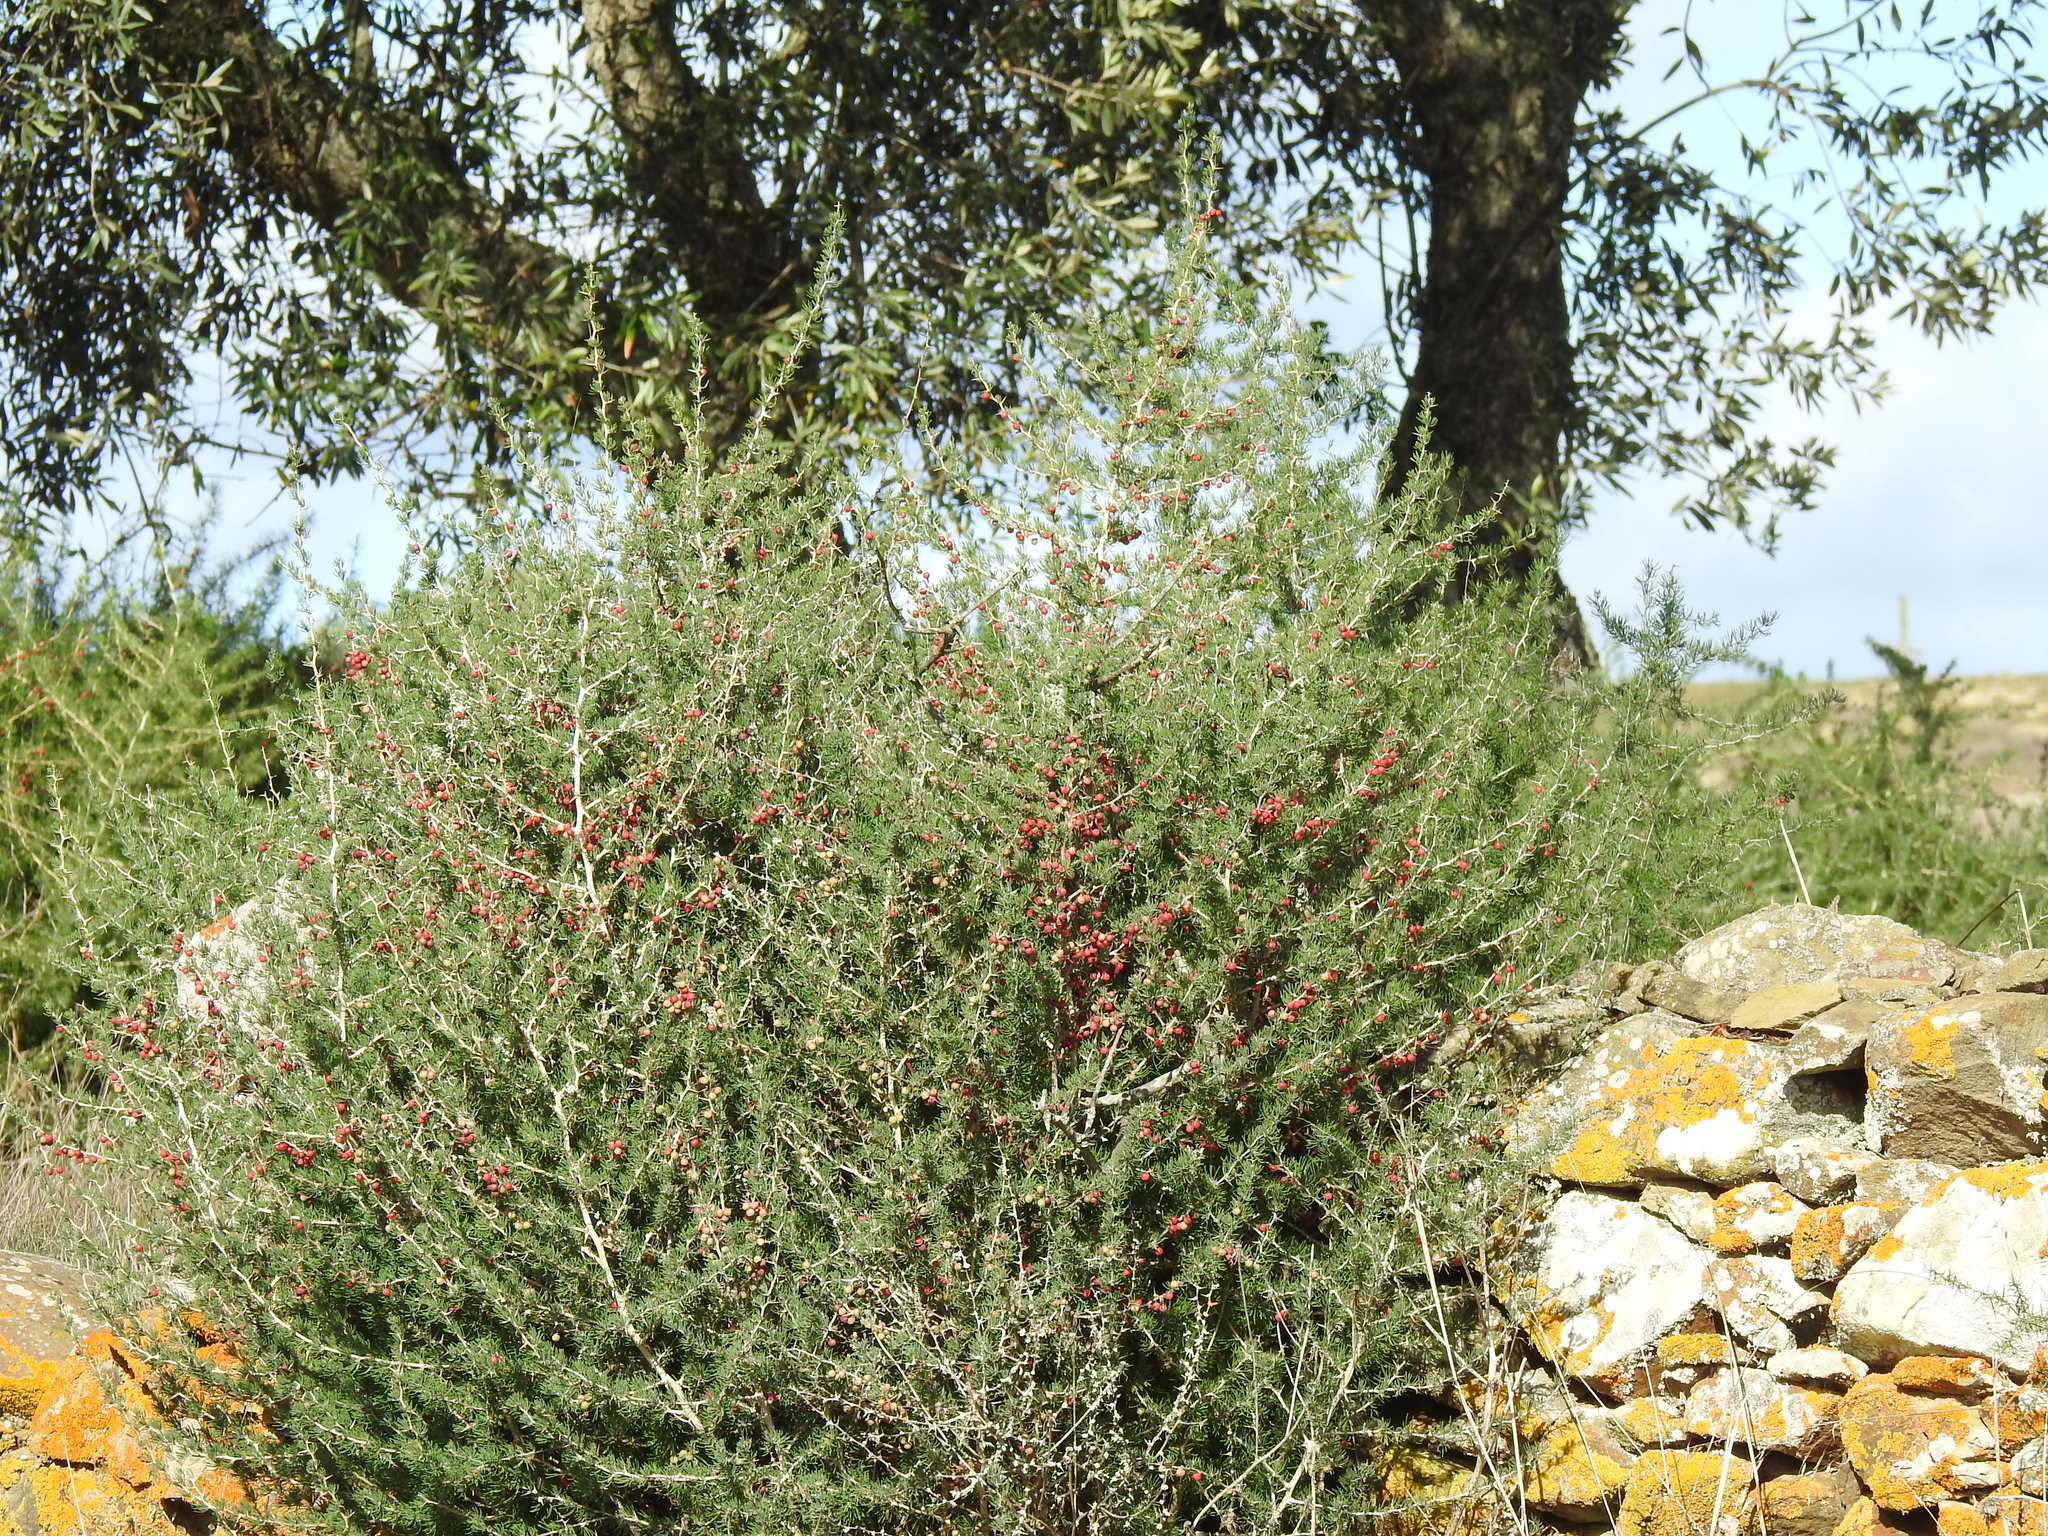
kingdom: Plantae
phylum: Tracheophyta
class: Liliopsida
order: Asparagales
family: Asparagaceae
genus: Asparagus
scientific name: Asparagus albus
